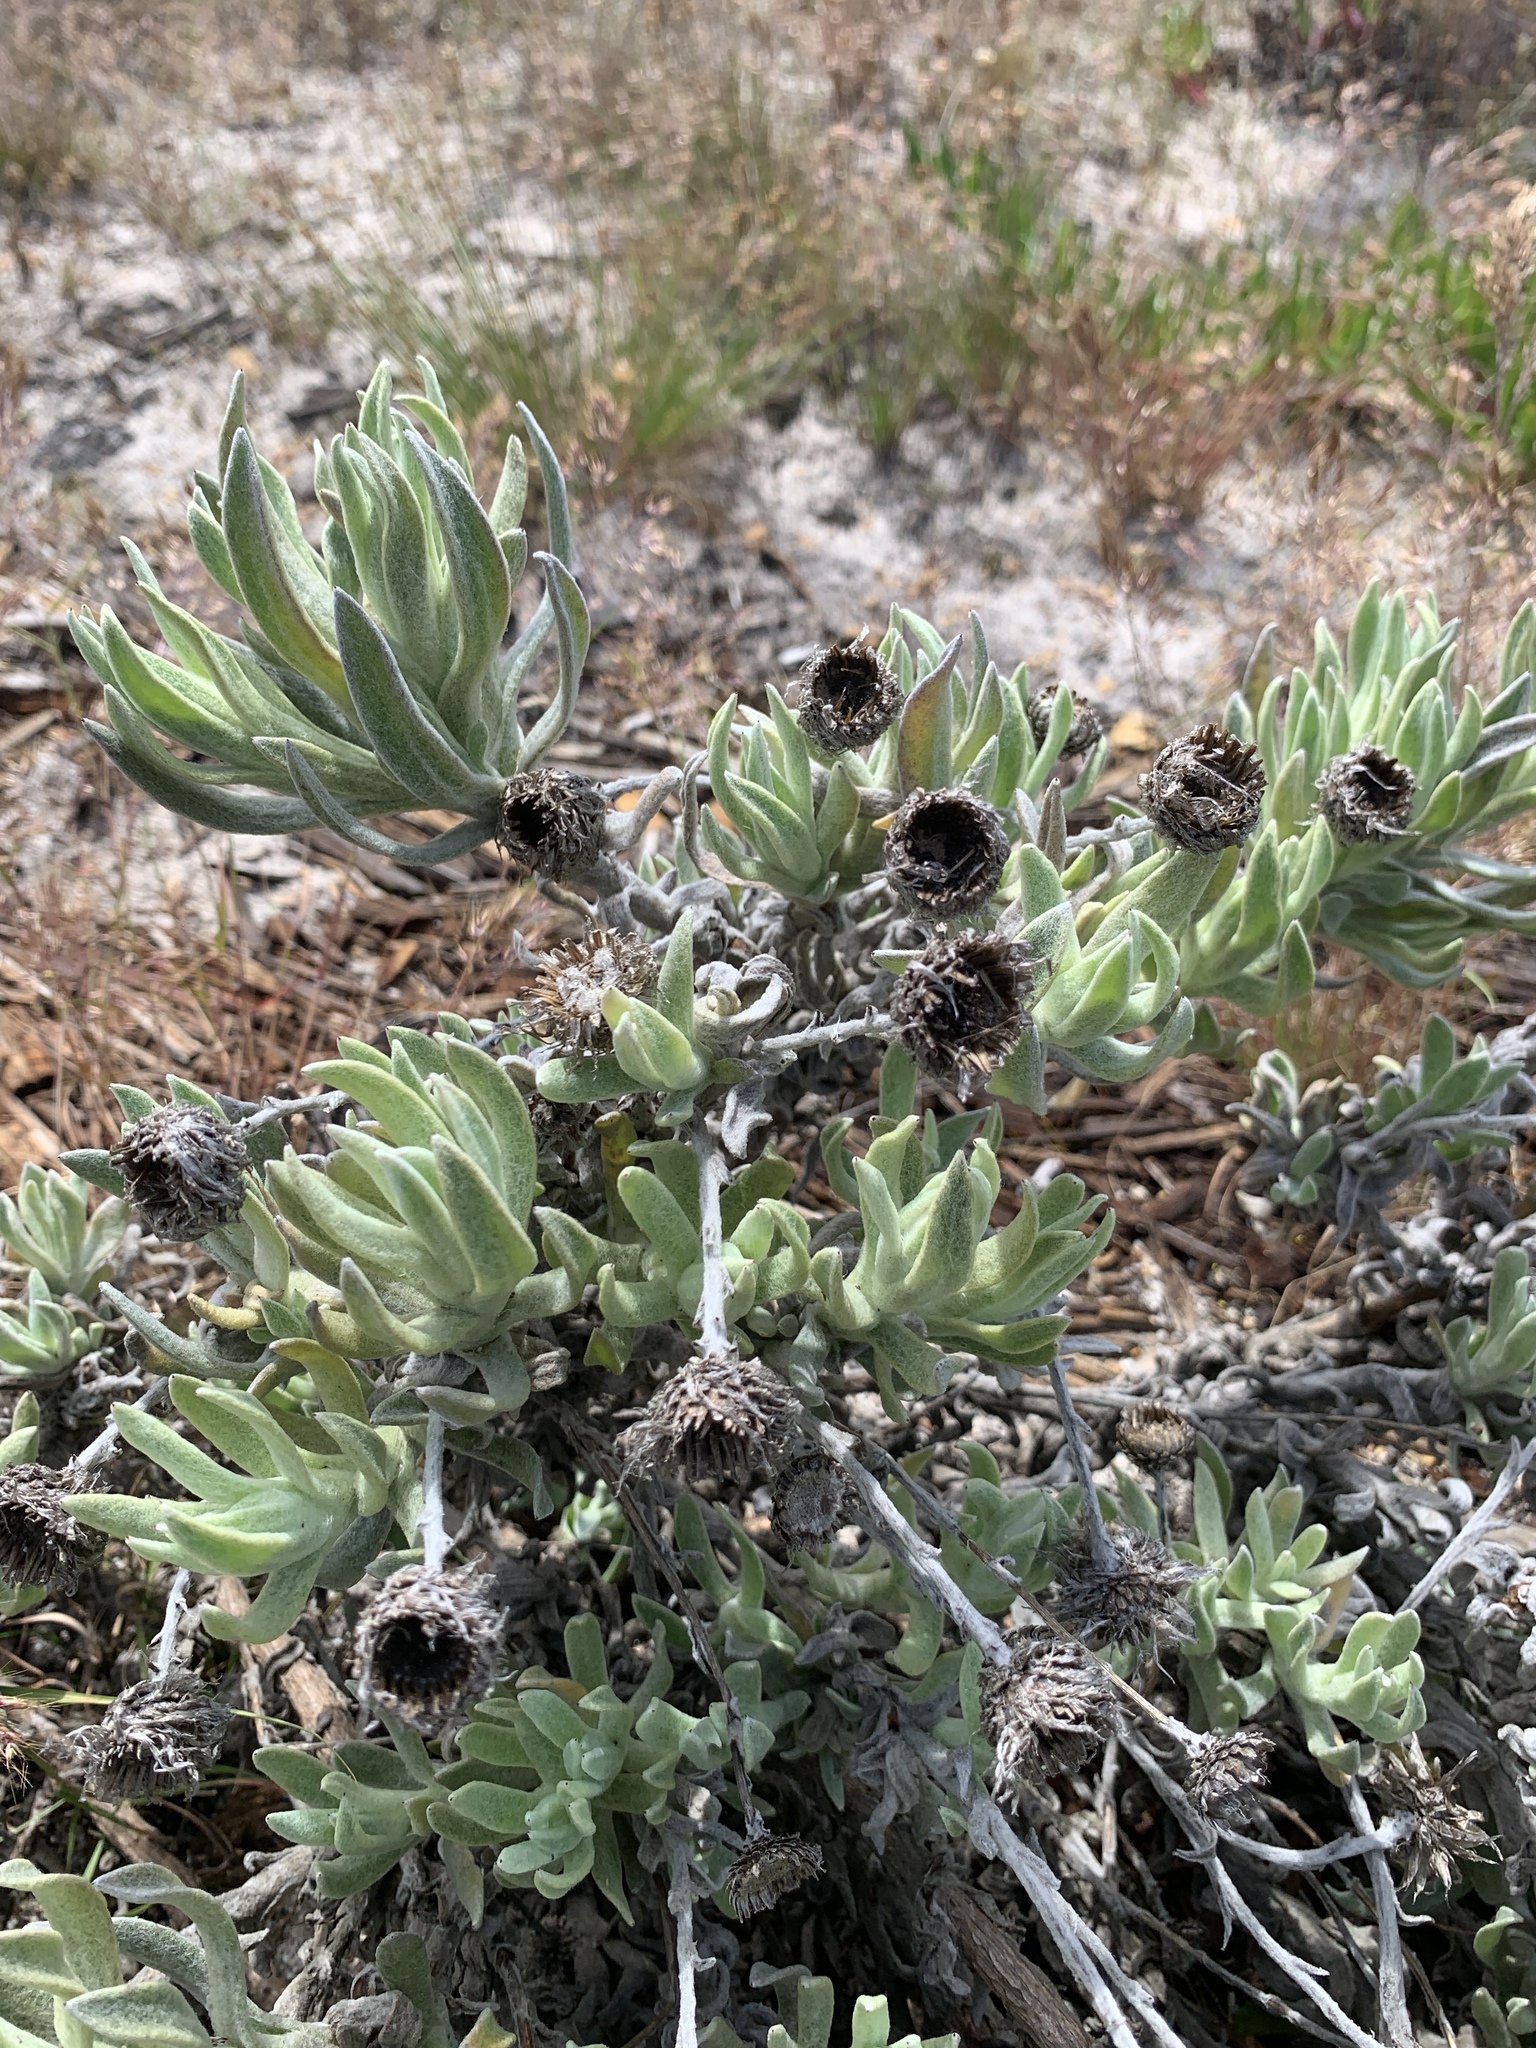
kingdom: Plantae
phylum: Tracheophyta
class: Magnoliopsida
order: Asterales
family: Asteraceae
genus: Syncarpha
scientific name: Syncarpha vestita
